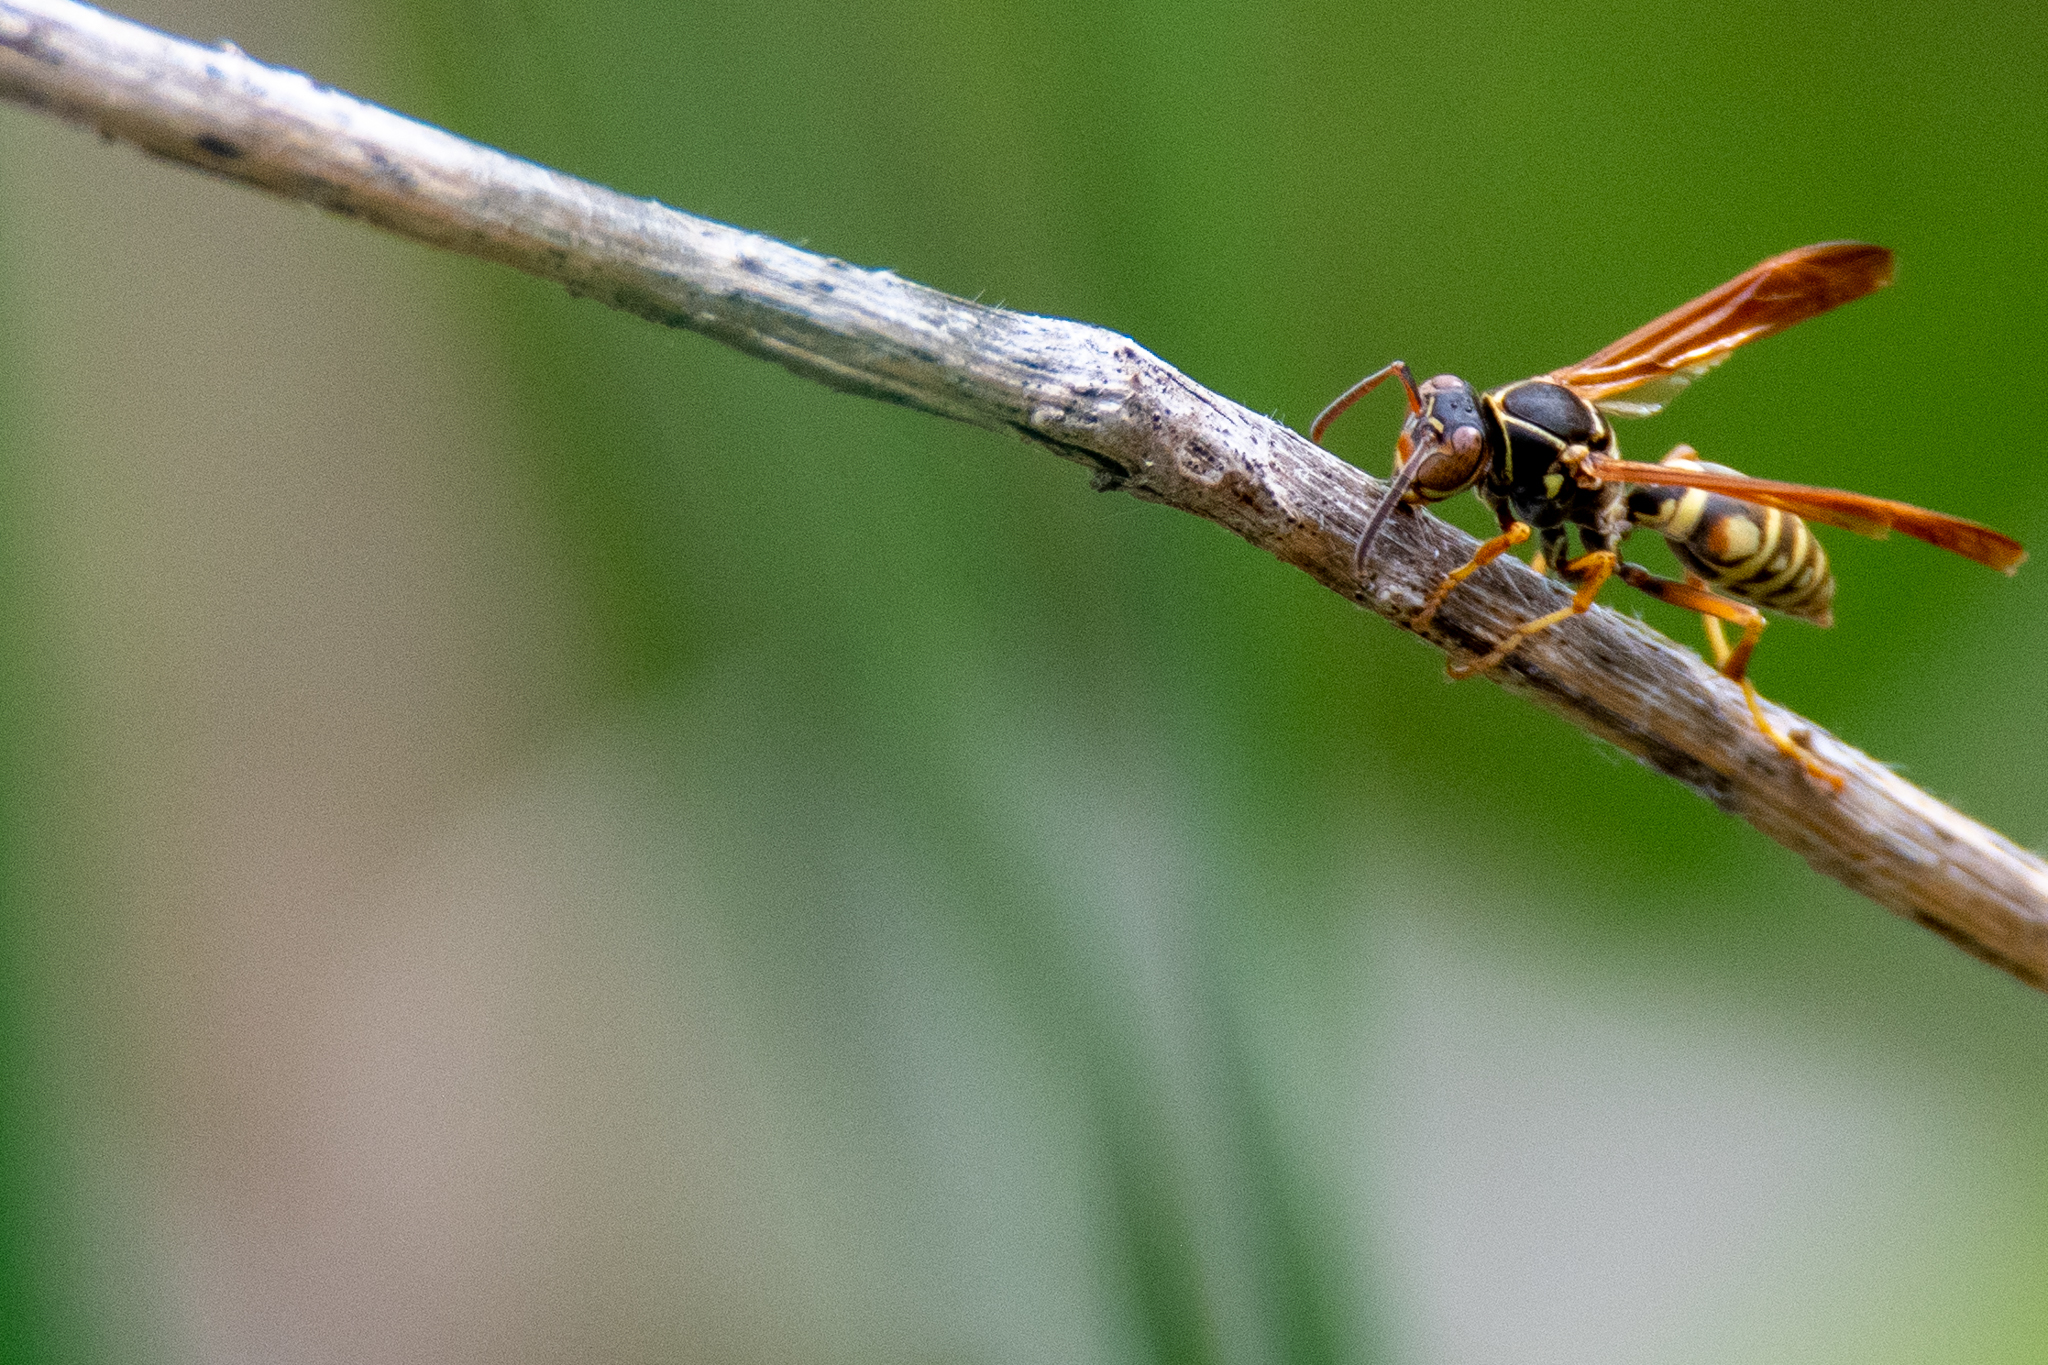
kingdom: Animalia
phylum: Arthropoda
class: Insecta
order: Hymenoptera
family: Eumenidae
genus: Polistes
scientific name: Polistes fuscatus
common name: Dark paper wasp
